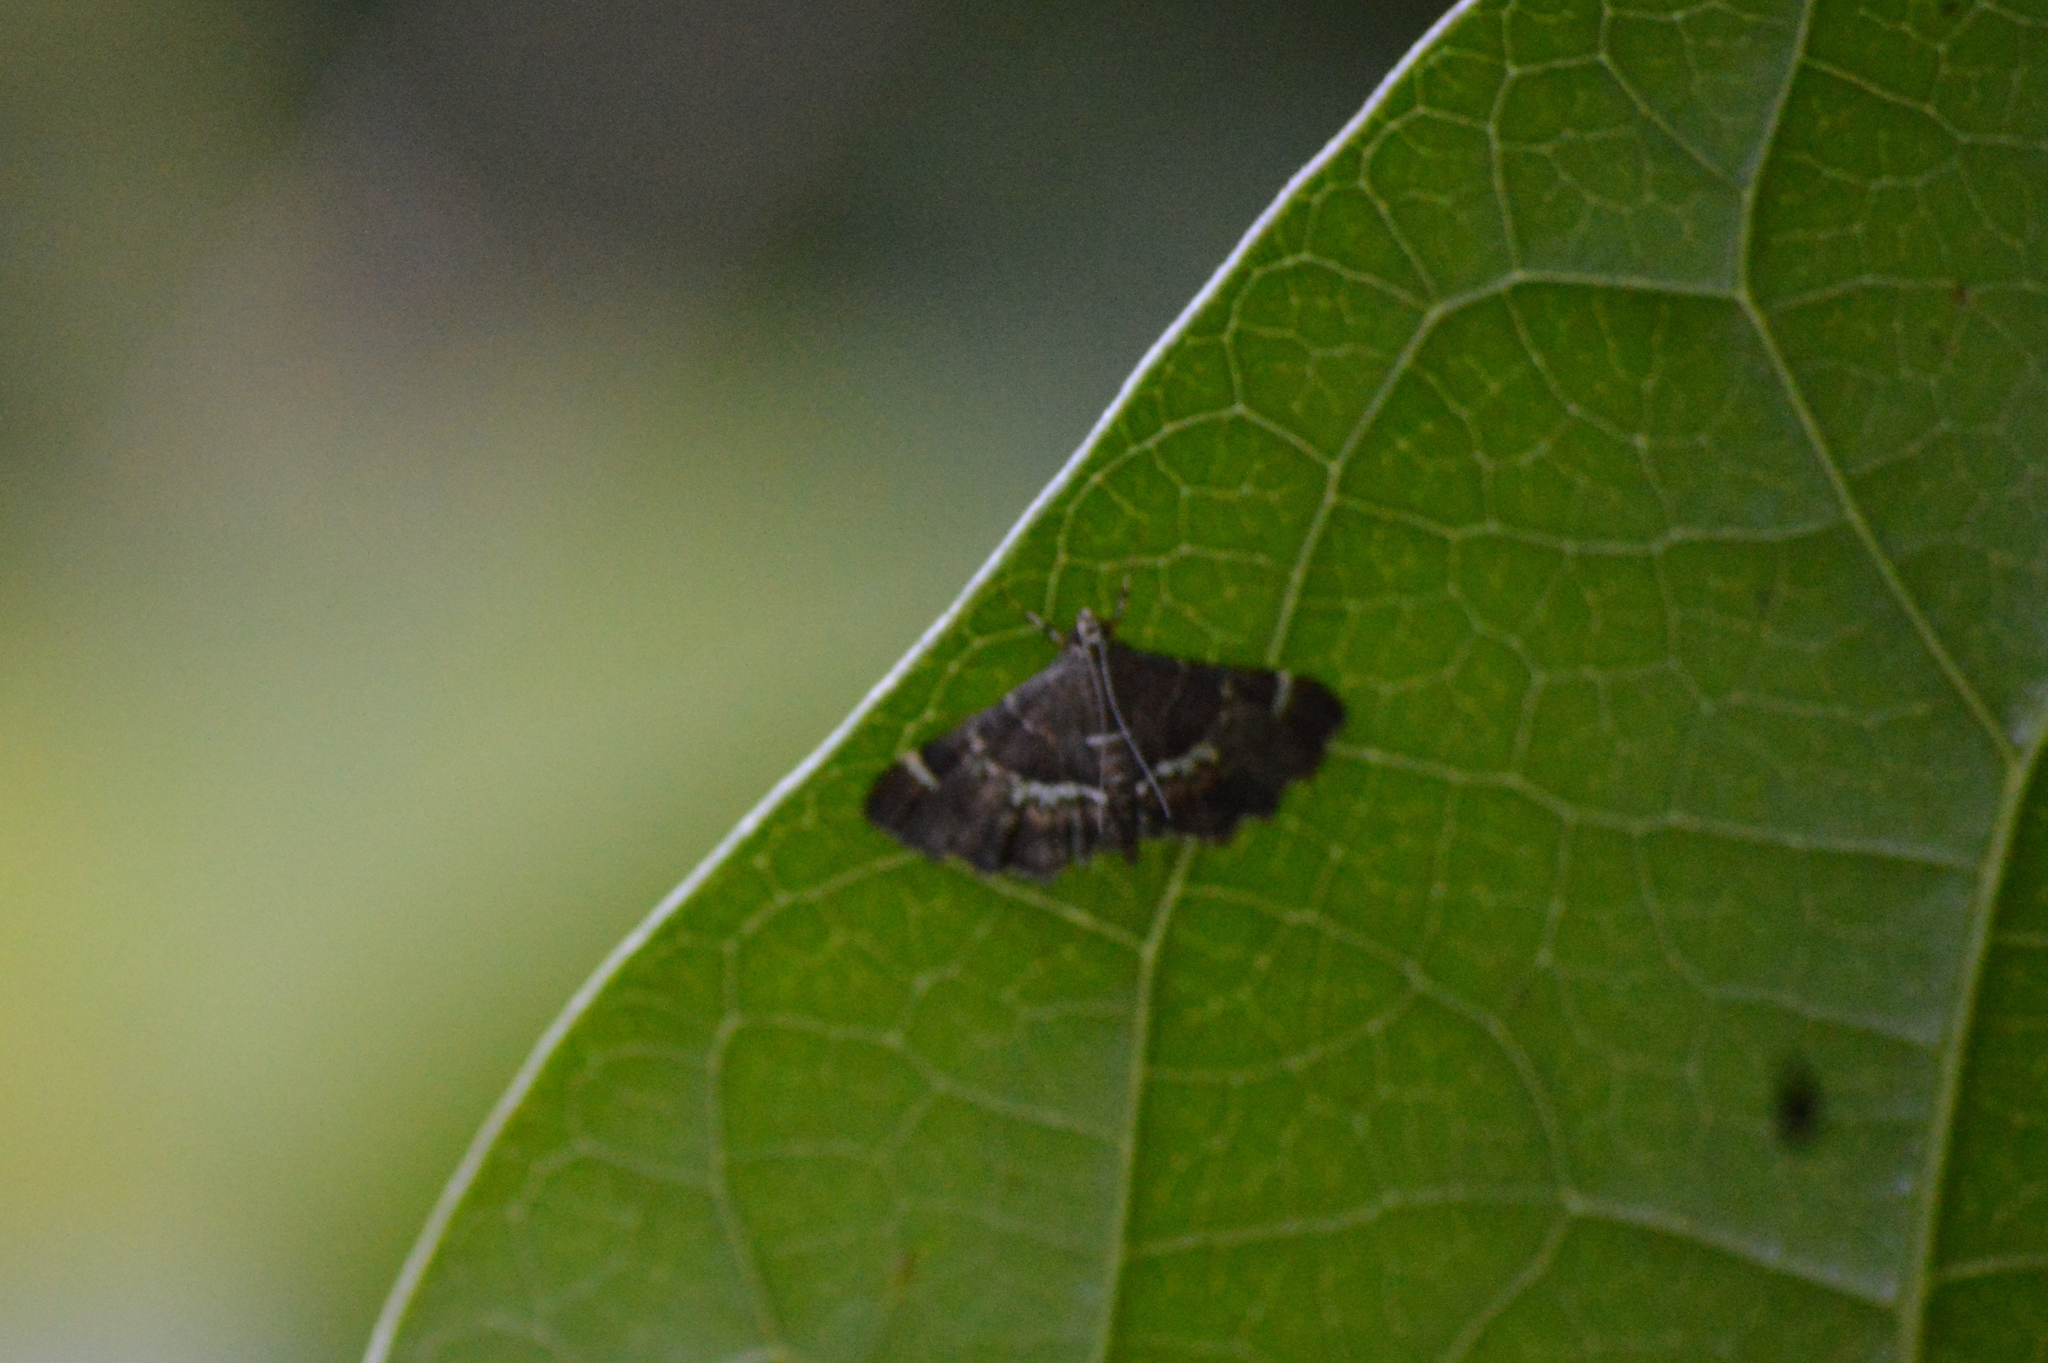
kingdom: Animalia
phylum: Arthropoda
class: Insecta
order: Lepidoptera
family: Crambidae
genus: Hymenia
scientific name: Hymenia perspectalis
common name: Spotted beet webworm
